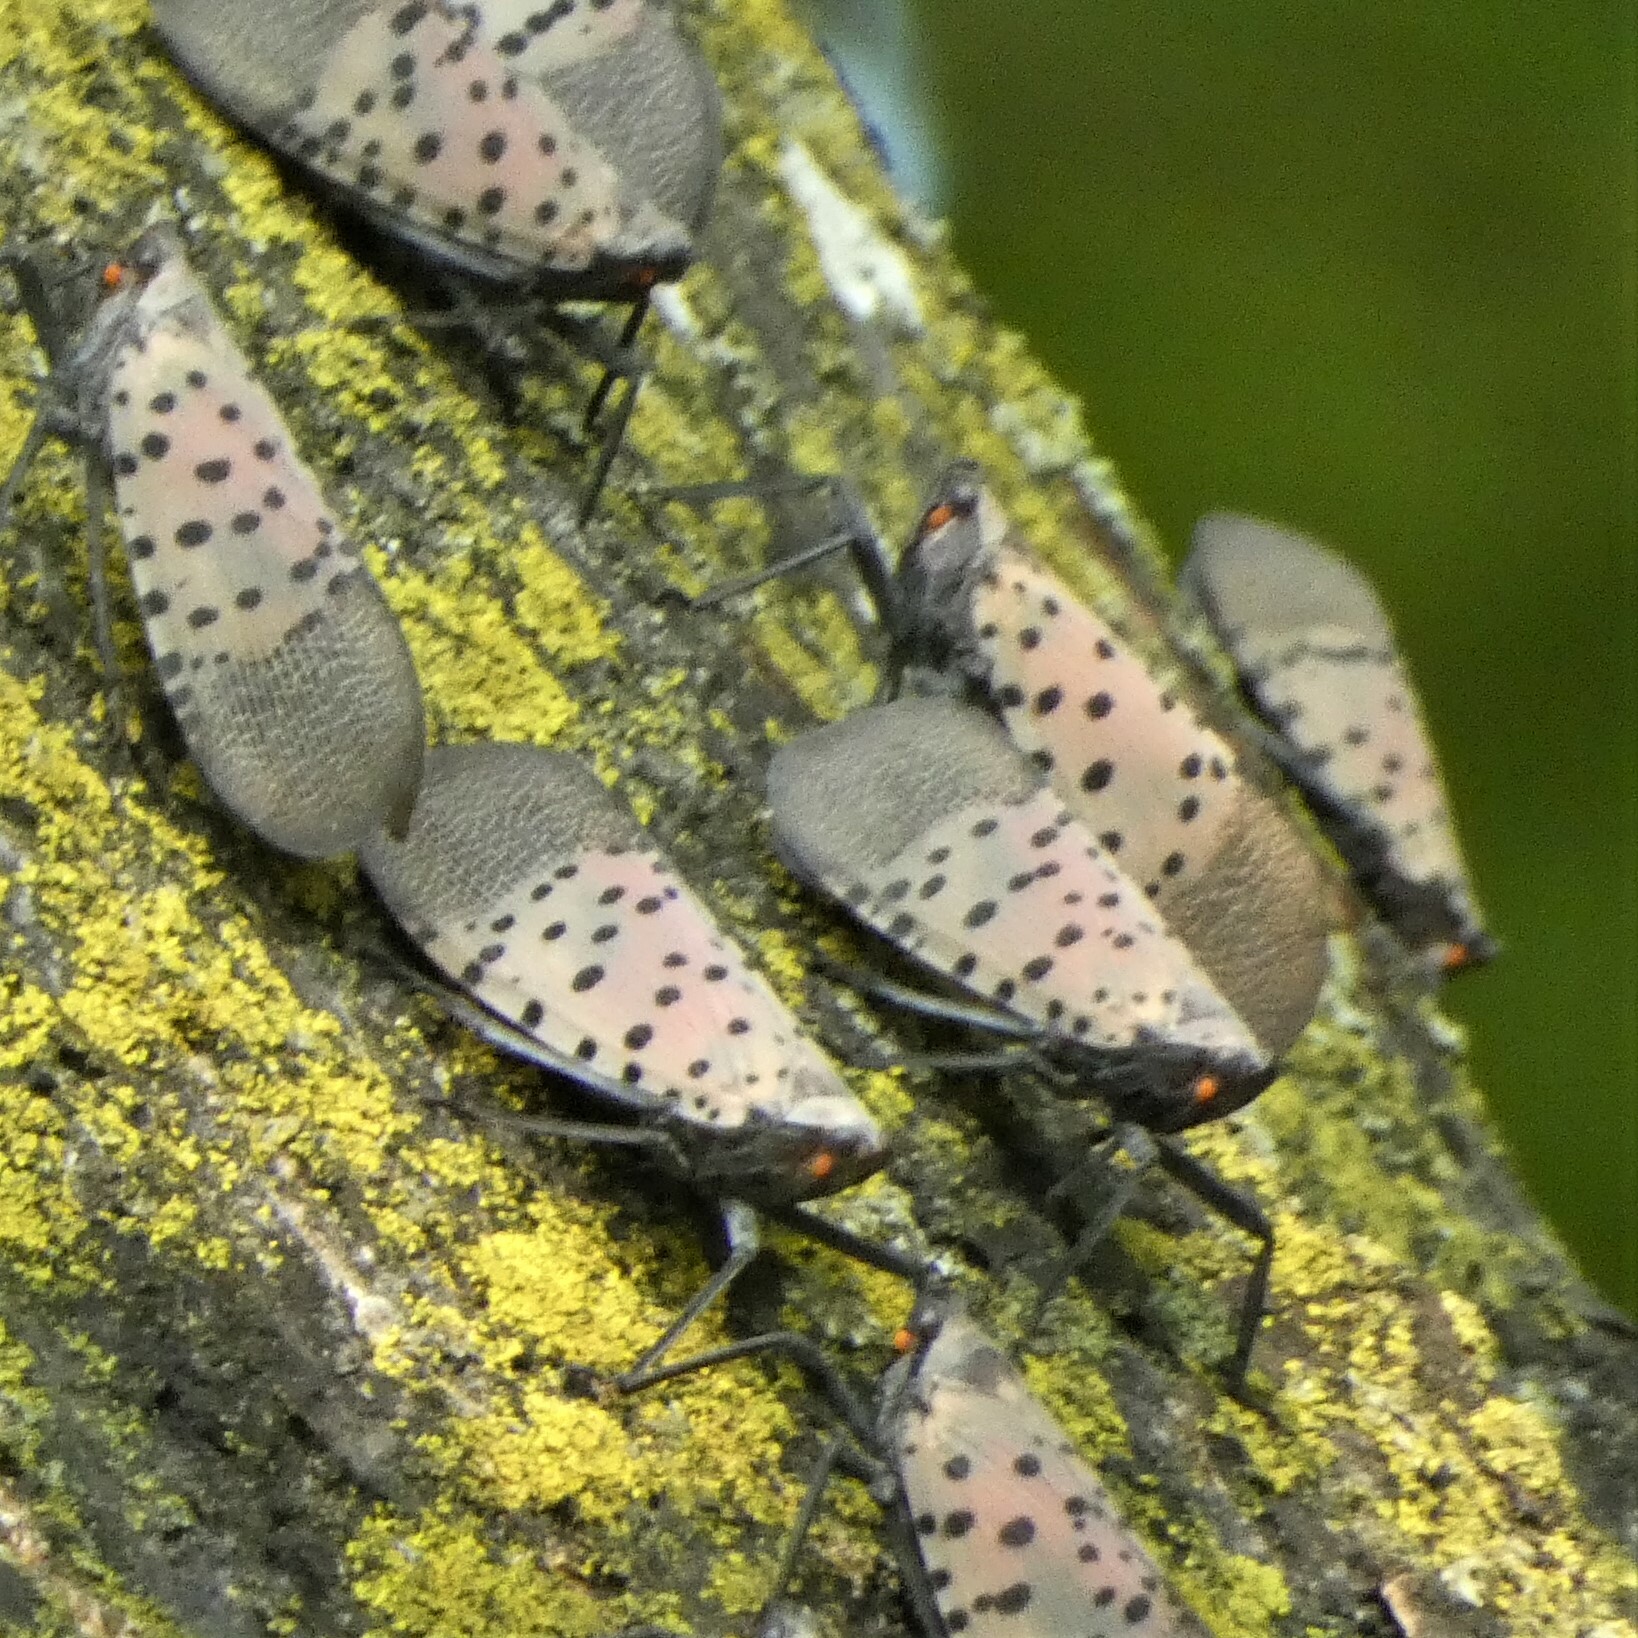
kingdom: Animalia
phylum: Arthropoda
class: Insecta
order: Hemiptera
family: Fulgoridae
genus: Lycorma
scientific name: Lycorma delicatula
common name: Spotted lanternfly
